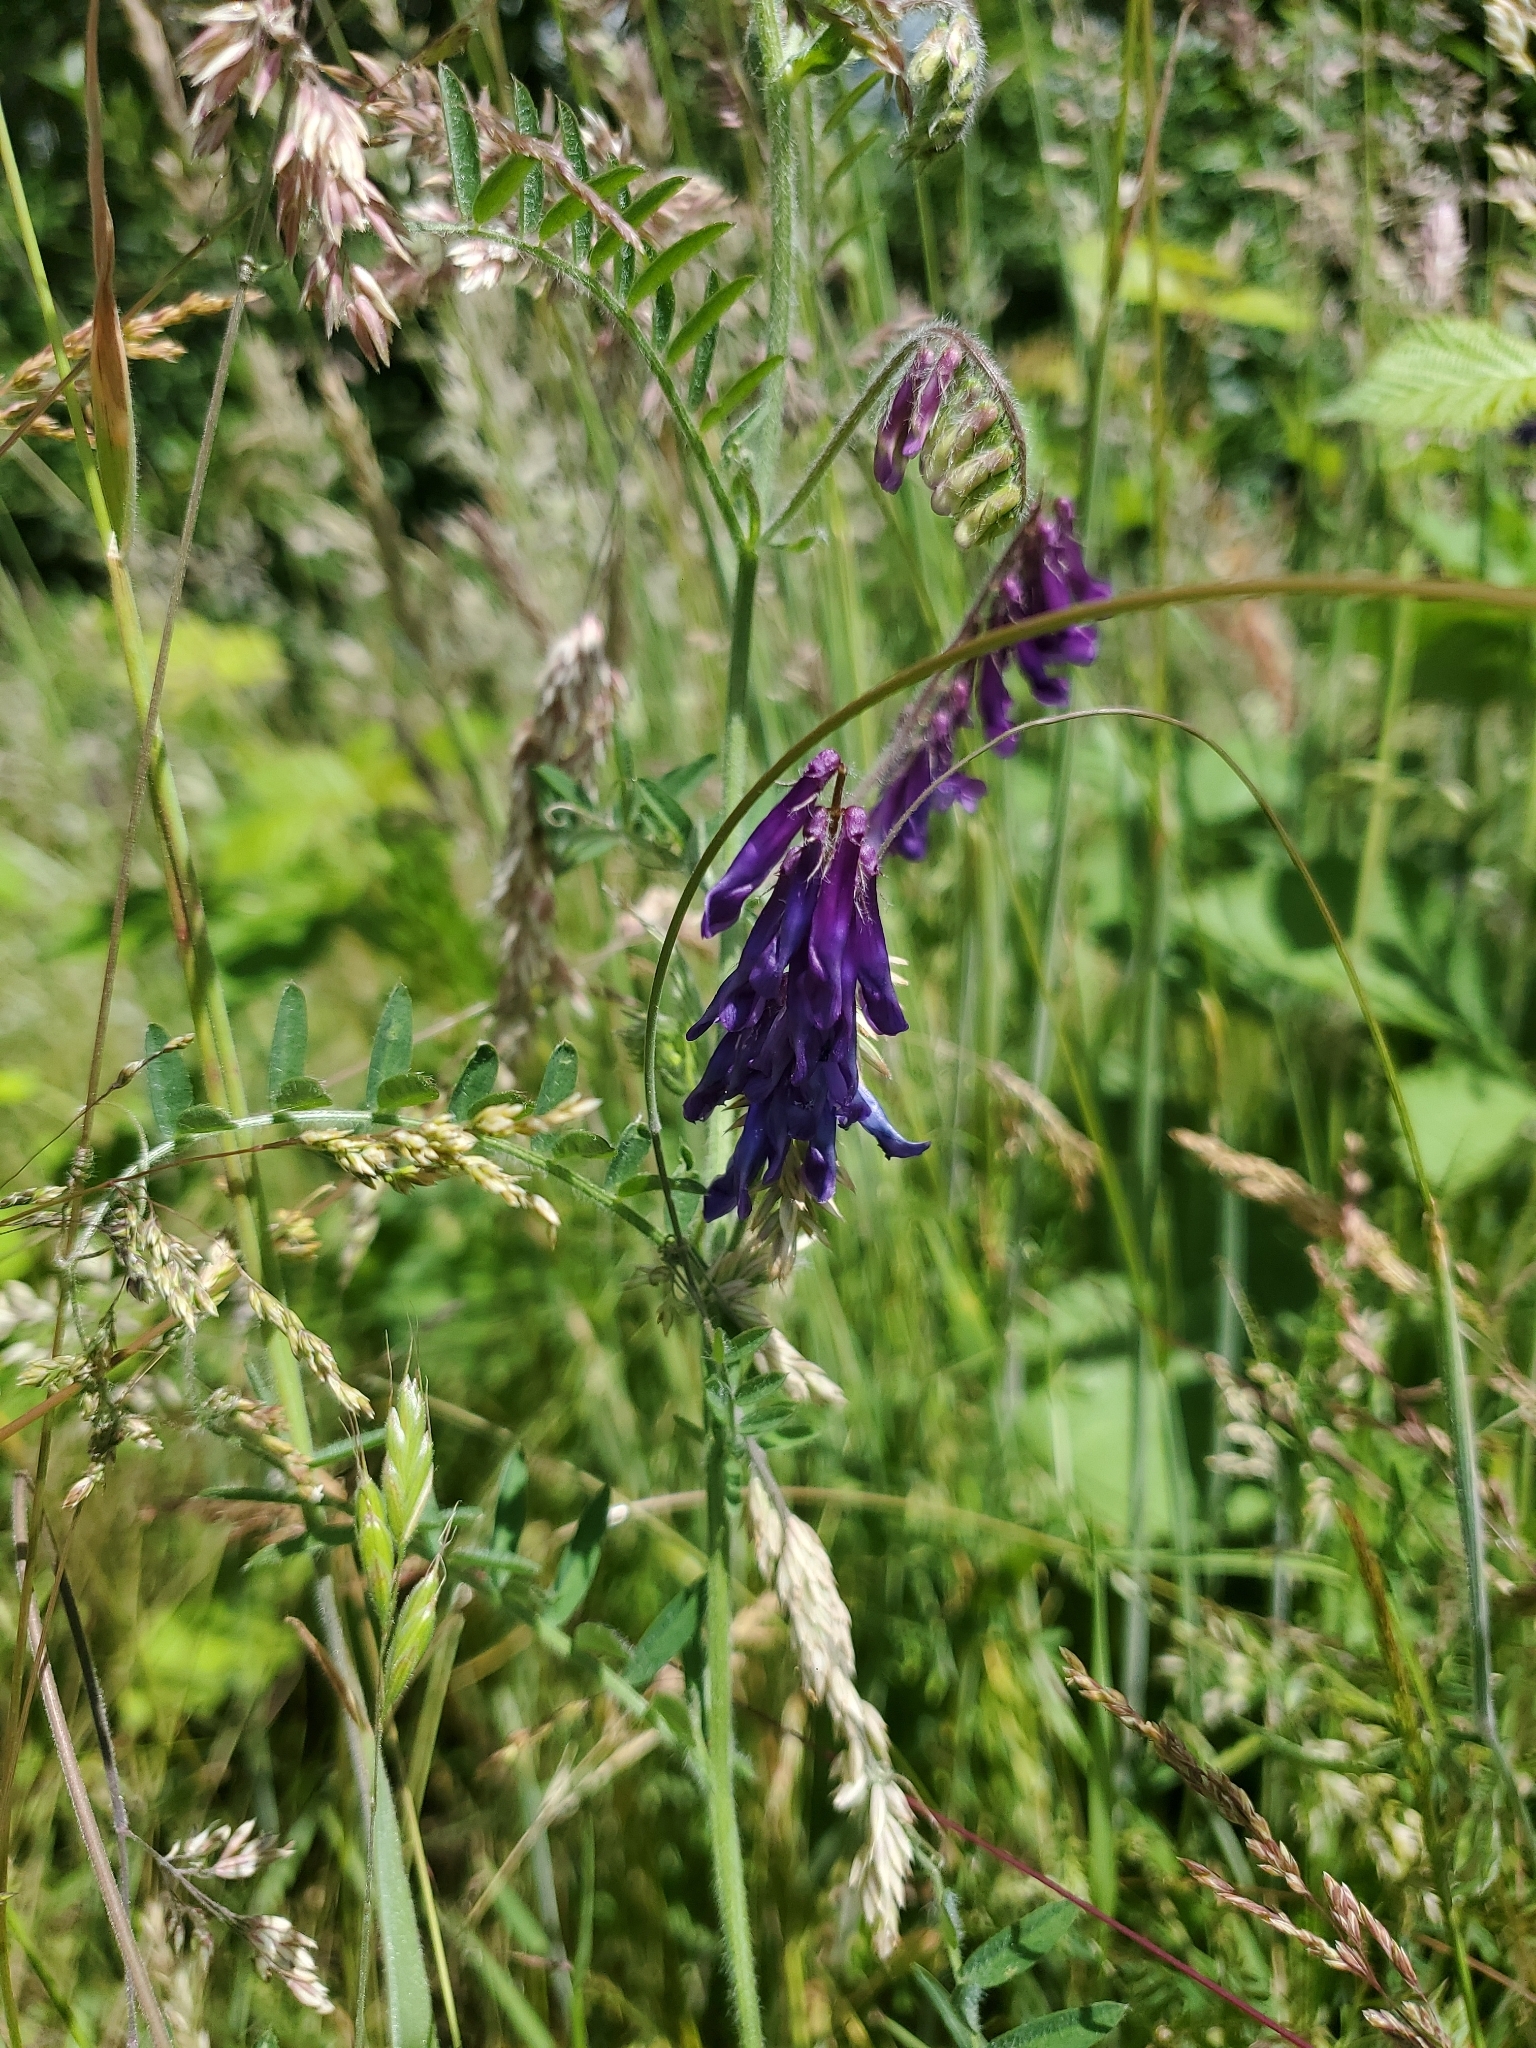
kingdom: Plantae
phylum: Tracheophyta
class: Magnoliopsida
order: Fabales
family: Fabaceae
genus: Vicia
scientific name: Vicia villosa
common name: Fodder vetch
